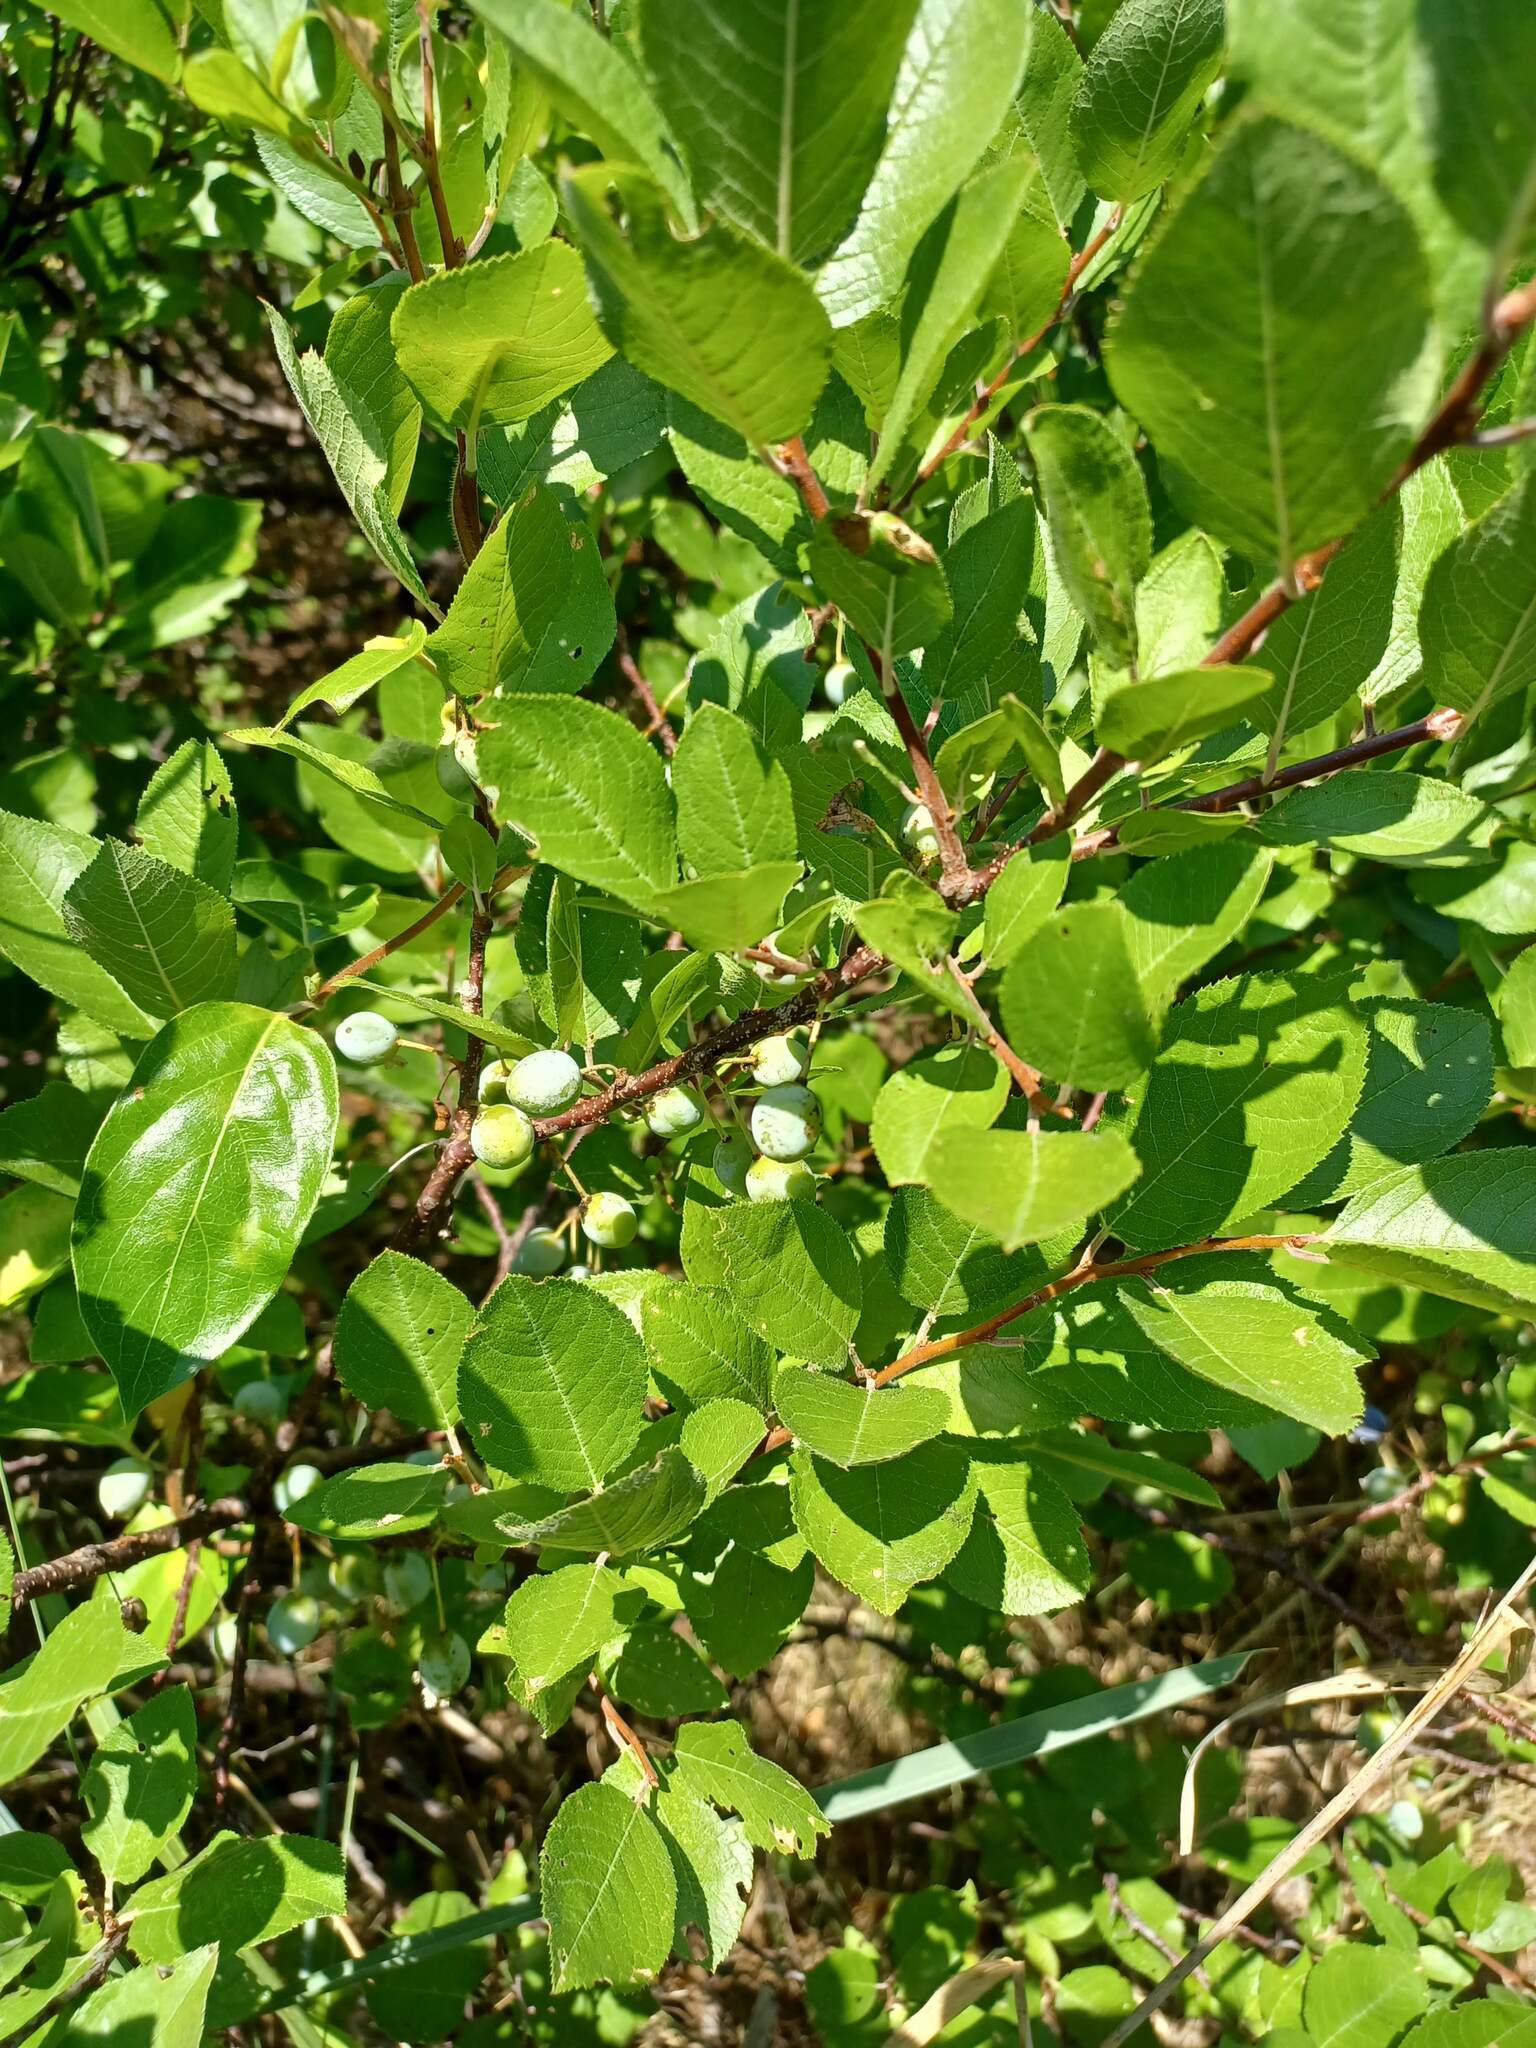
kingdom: Plantae
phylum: Tracheophyta
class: Magnoliopsida
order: Rosales
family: Rosaceae
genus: Prunus
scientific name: Prunus maritima
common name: Beach plum
